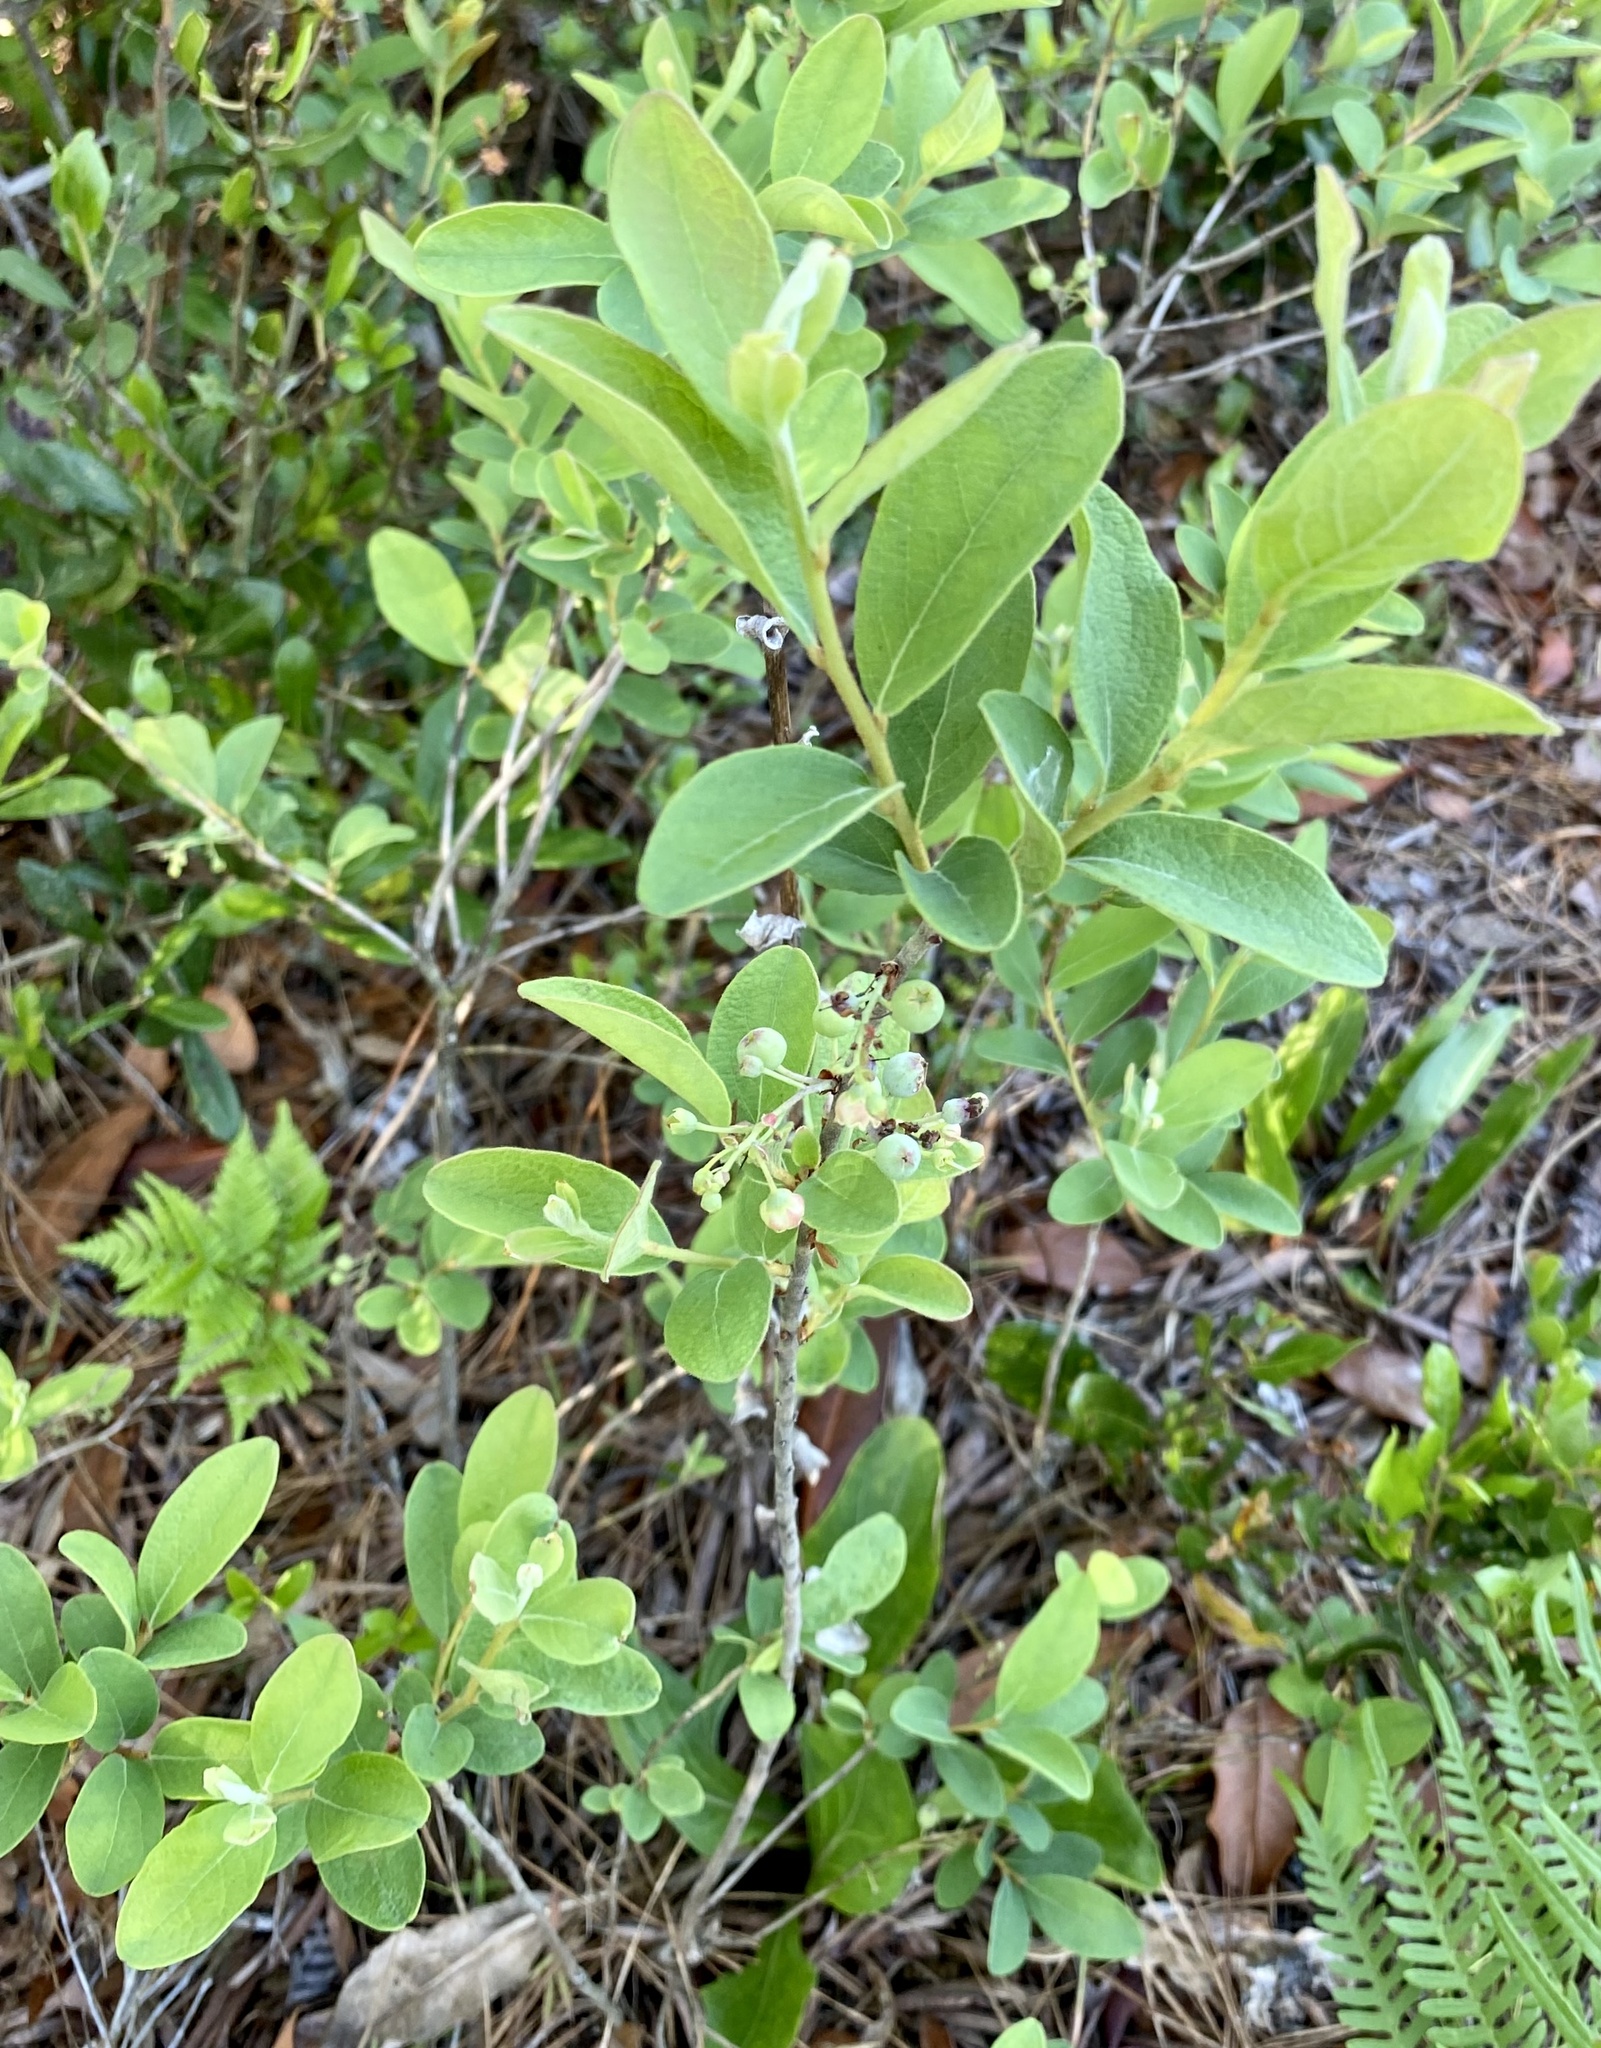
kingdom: Plantae
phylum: Tracheophyta
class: Magnoliopsida
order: Ericales
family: Ericaceae
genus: Gaylussacia
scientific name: Gaylussacia tomentosa
